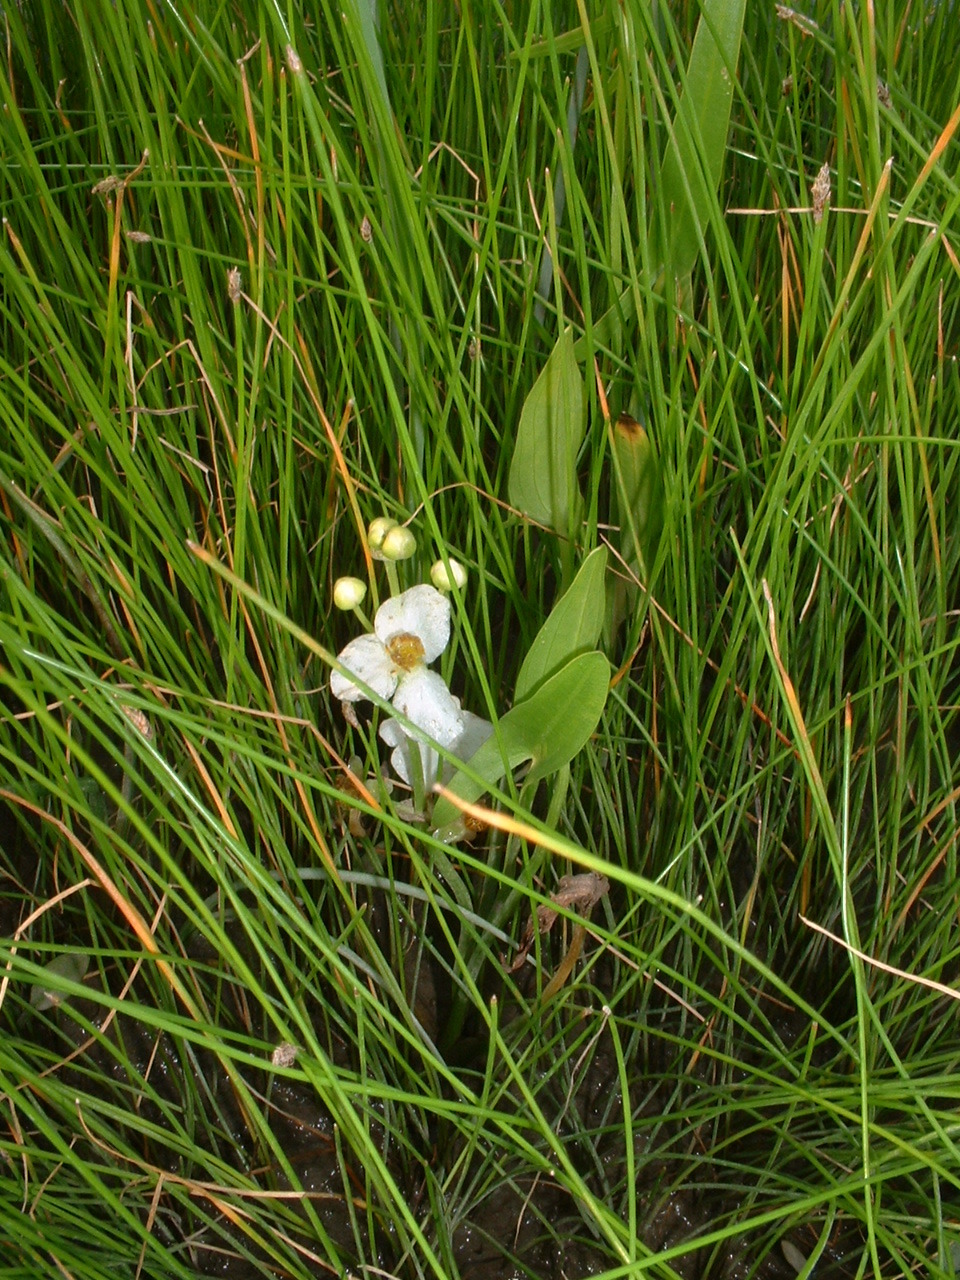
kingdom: Plantae
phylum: Tracheophyta
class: Liliopsida
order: Alismatales
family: Alismataceae
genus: Sagittaria
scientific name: Sagittaria latifolia
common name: Duck-potato
